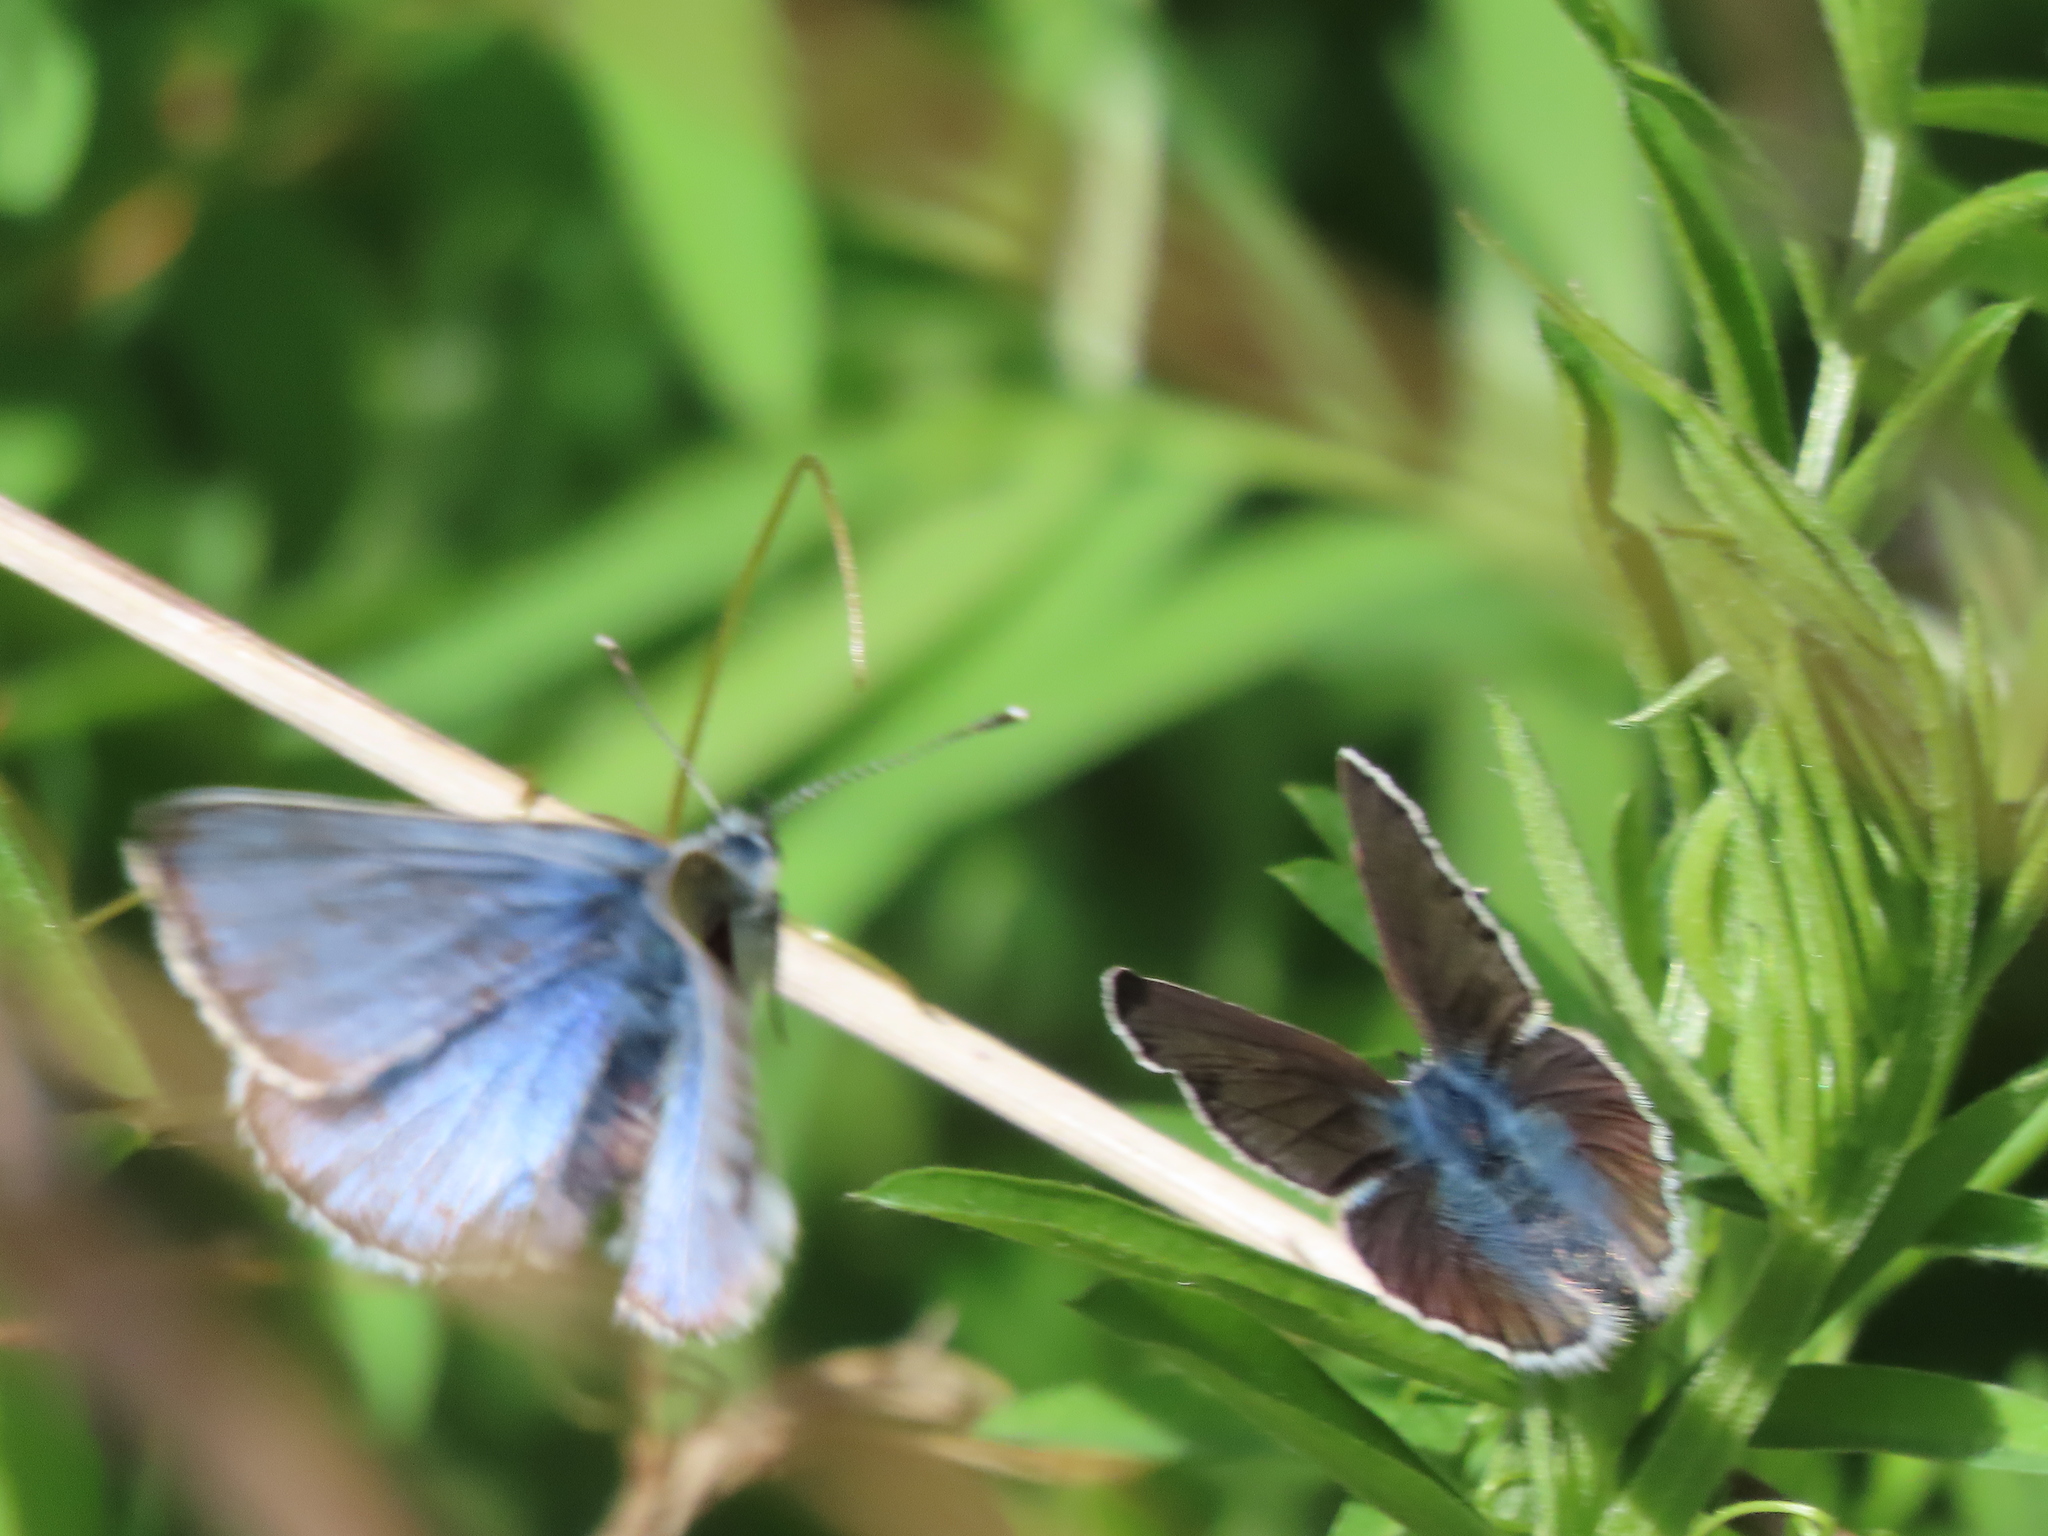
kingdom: Animalia
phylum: Arthropoda
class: Insecta
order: Lepidoptera
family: Lycaenidae
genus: Glaucopsyche
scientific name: Glaucopsyche lygdamus
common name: Silvery blue
